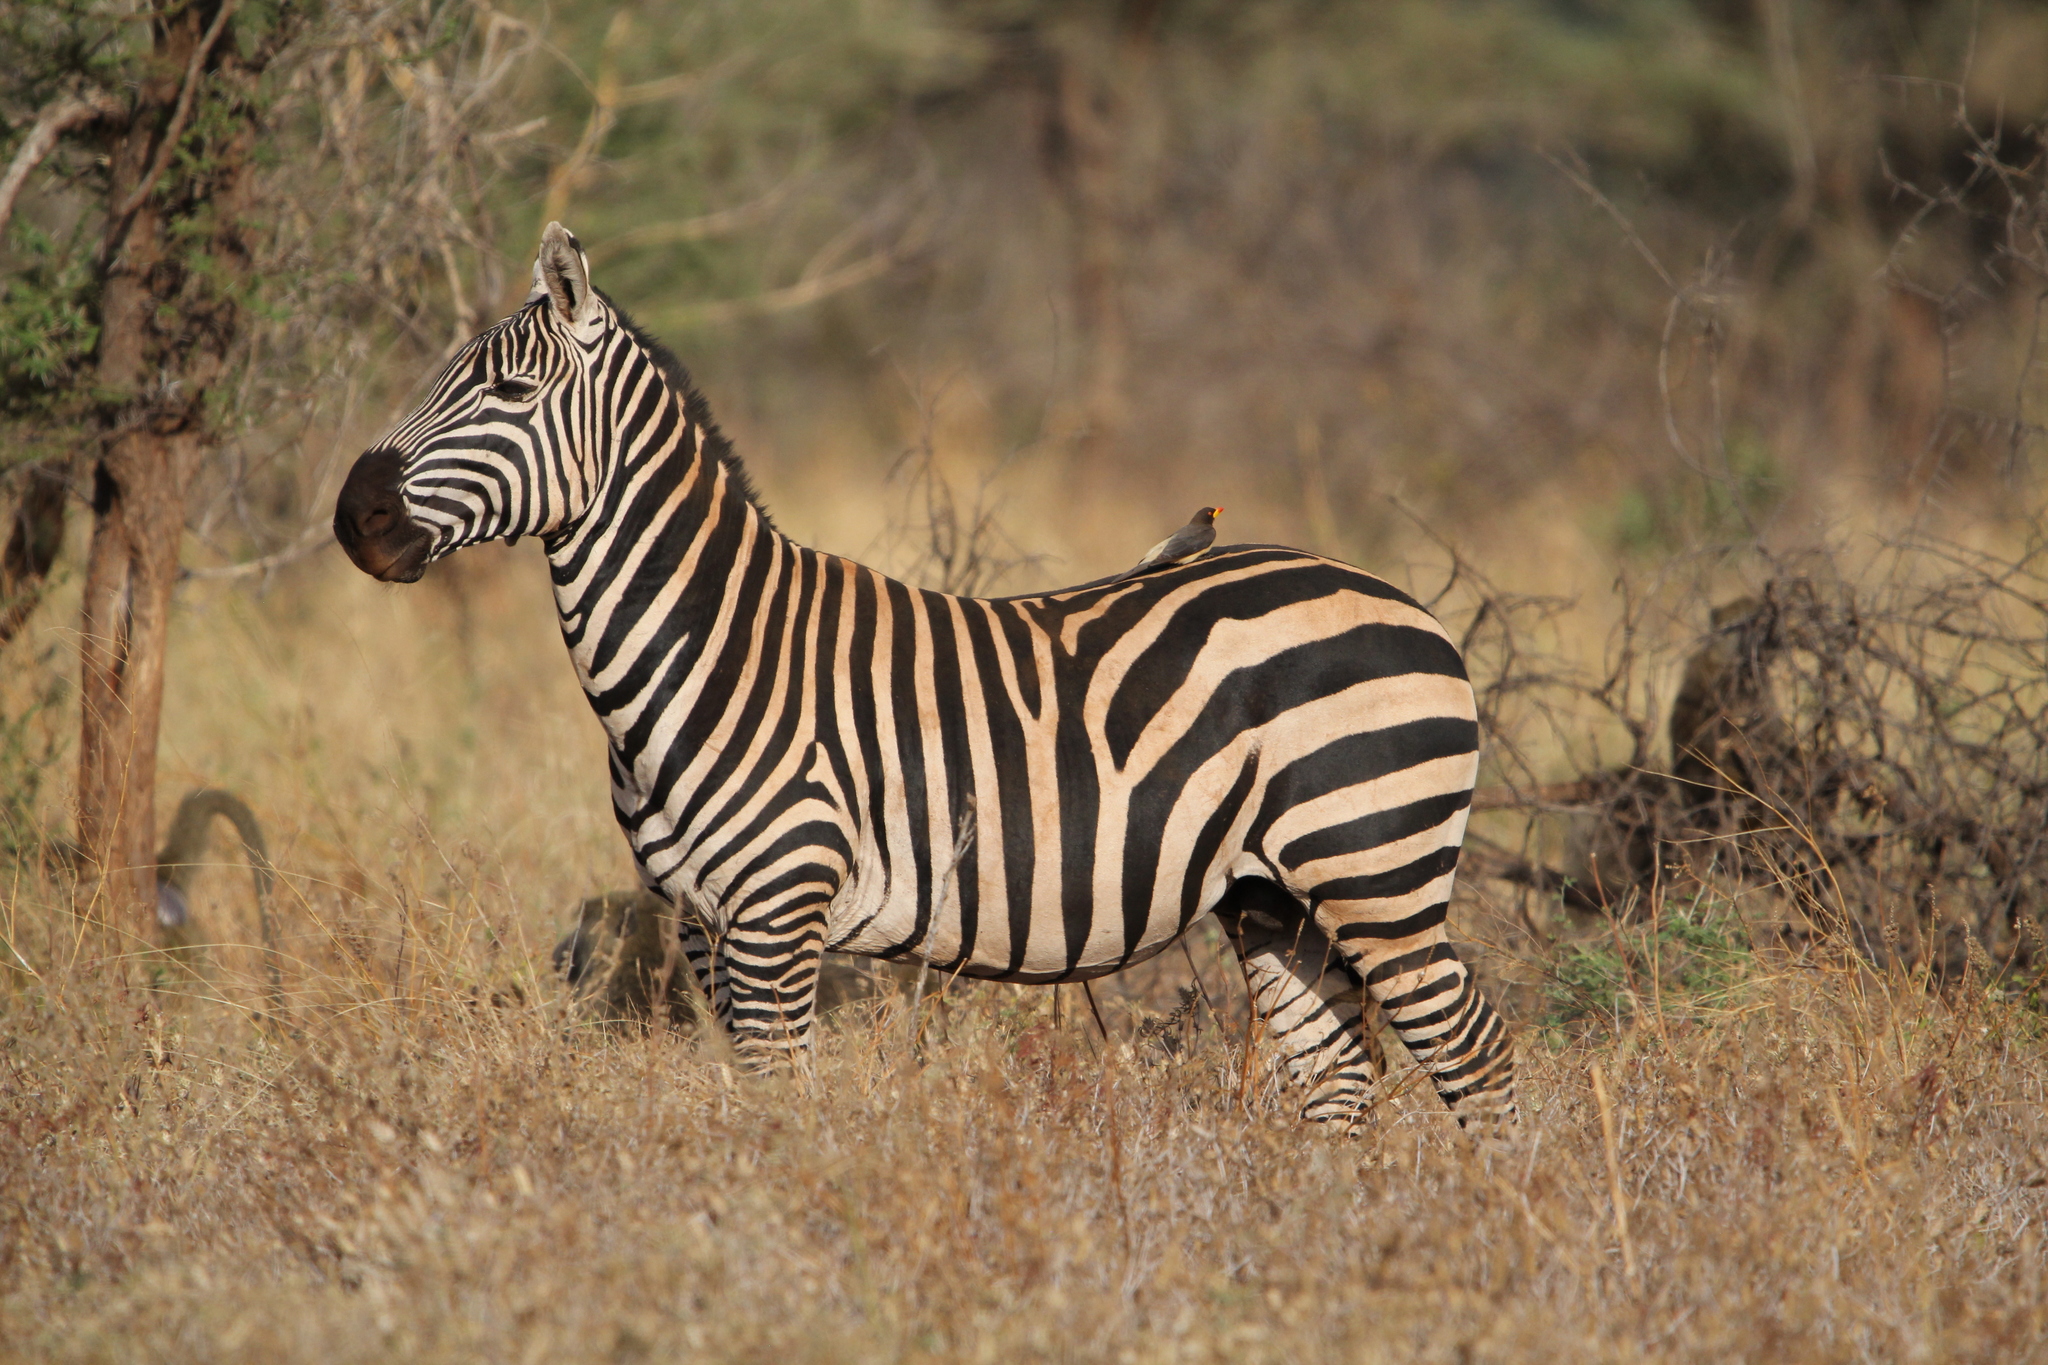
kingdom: Animalia
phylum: Chordata
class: Mammalia
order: Perissodactyla
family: Equidae
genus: Equus
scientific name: Equus quagga
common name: Plains zebra
